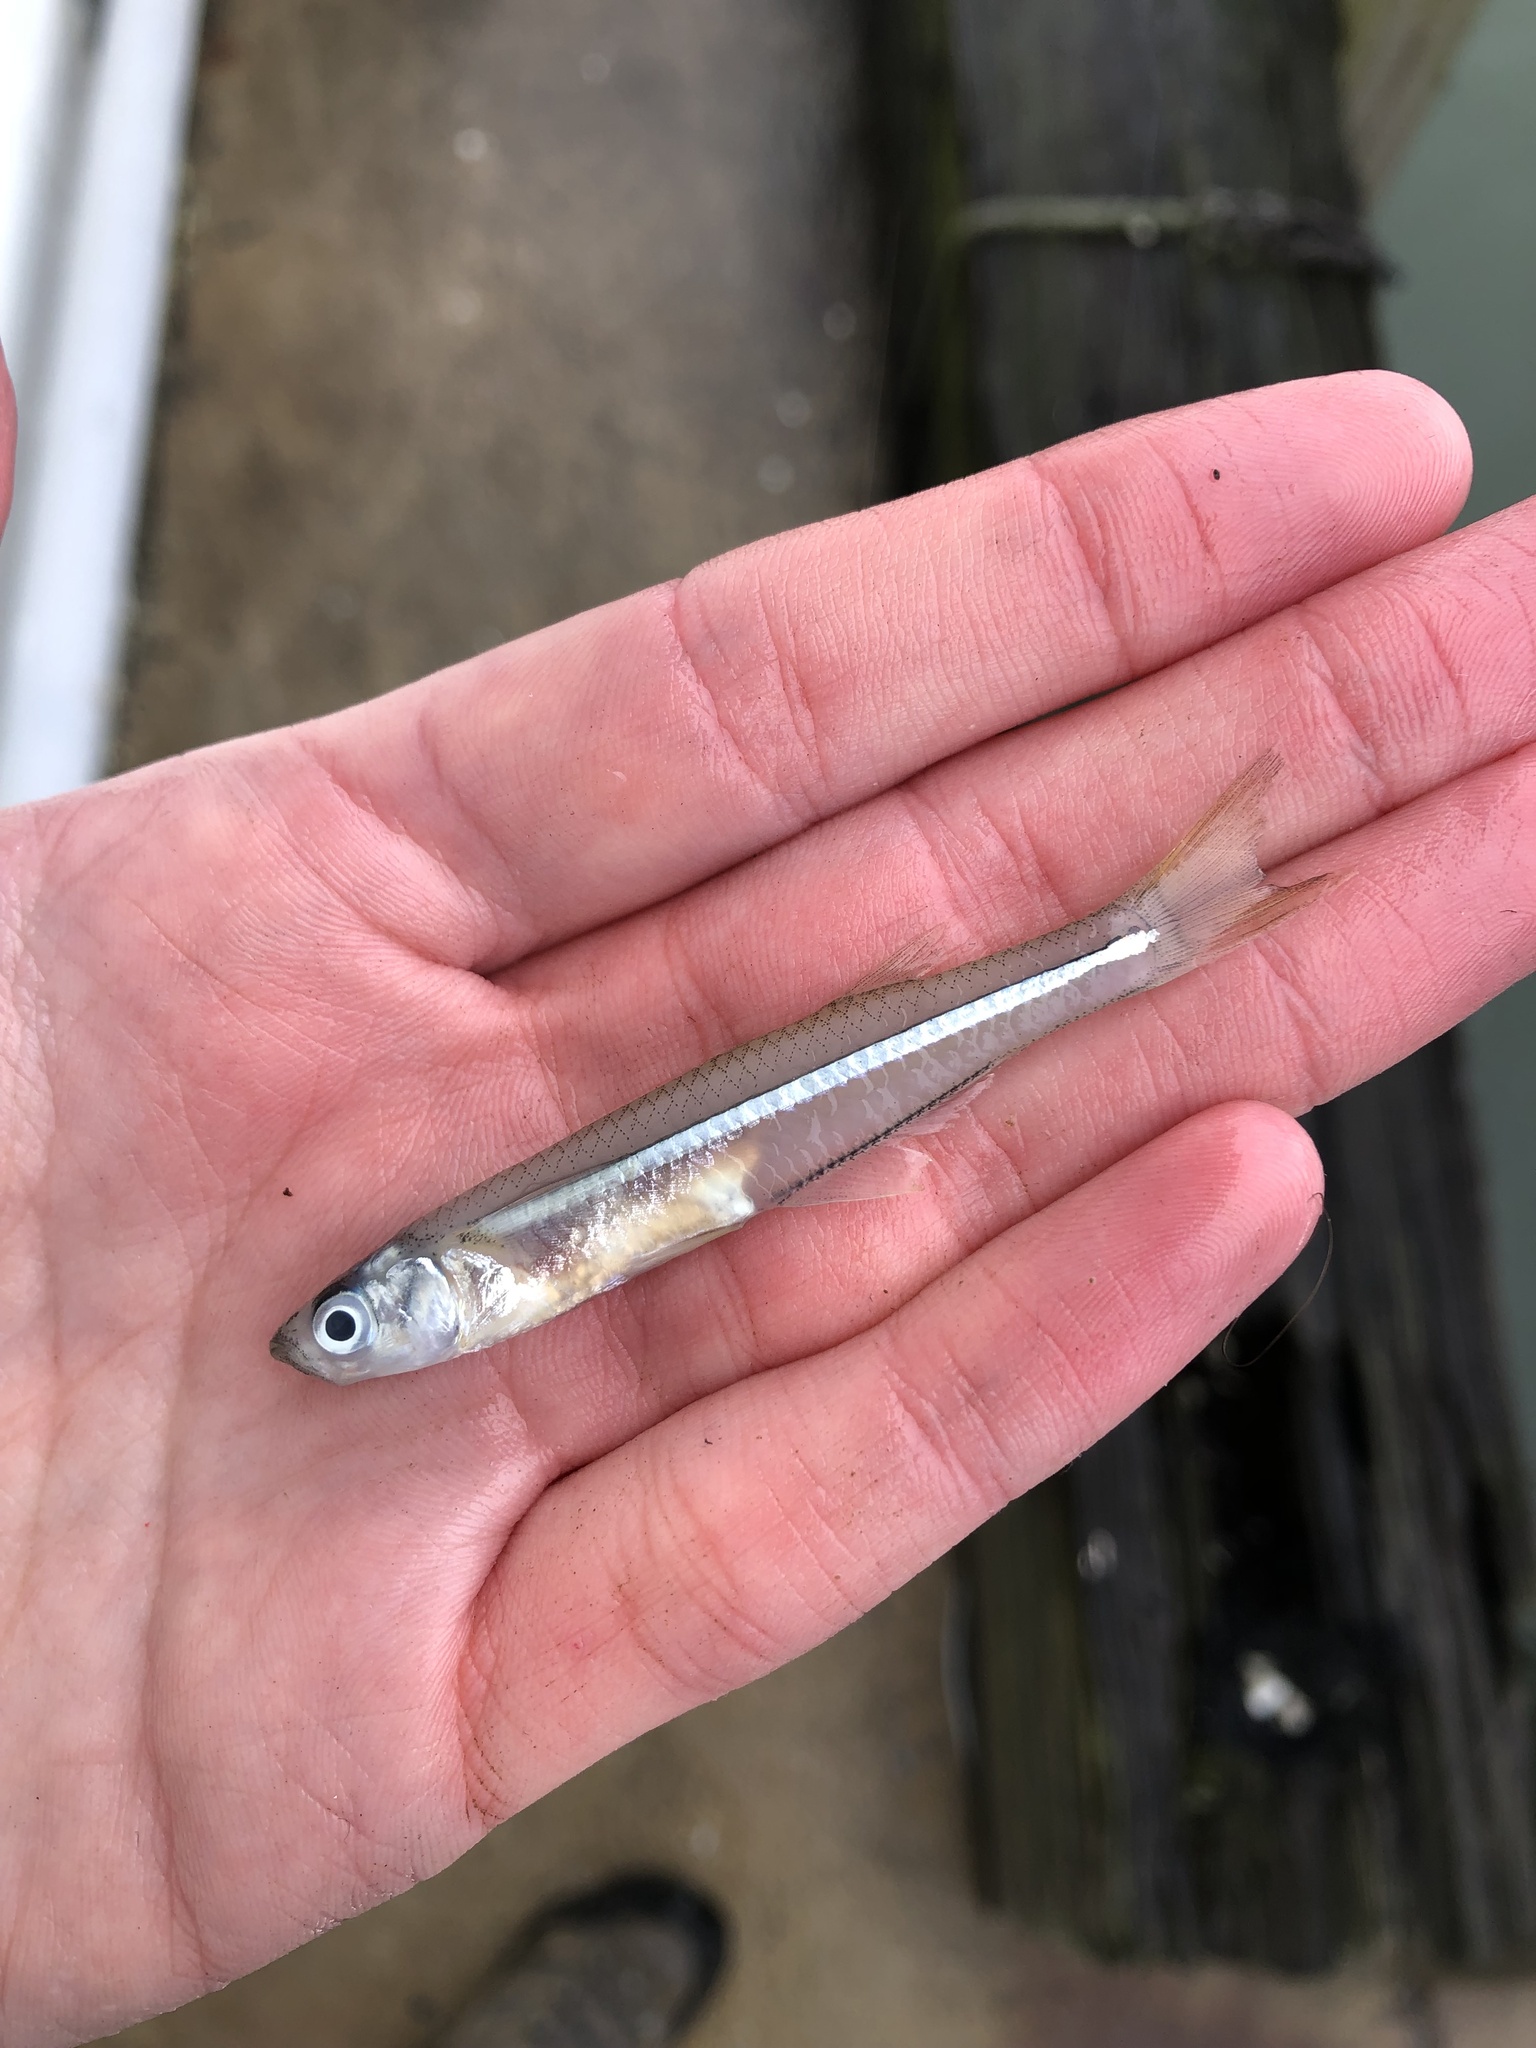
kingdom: Animalia
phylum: Chordata
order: Atheriniformes
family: Atherinopsidae
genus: Menidia
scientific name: Menidia menidia
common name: Atlantic silverside
